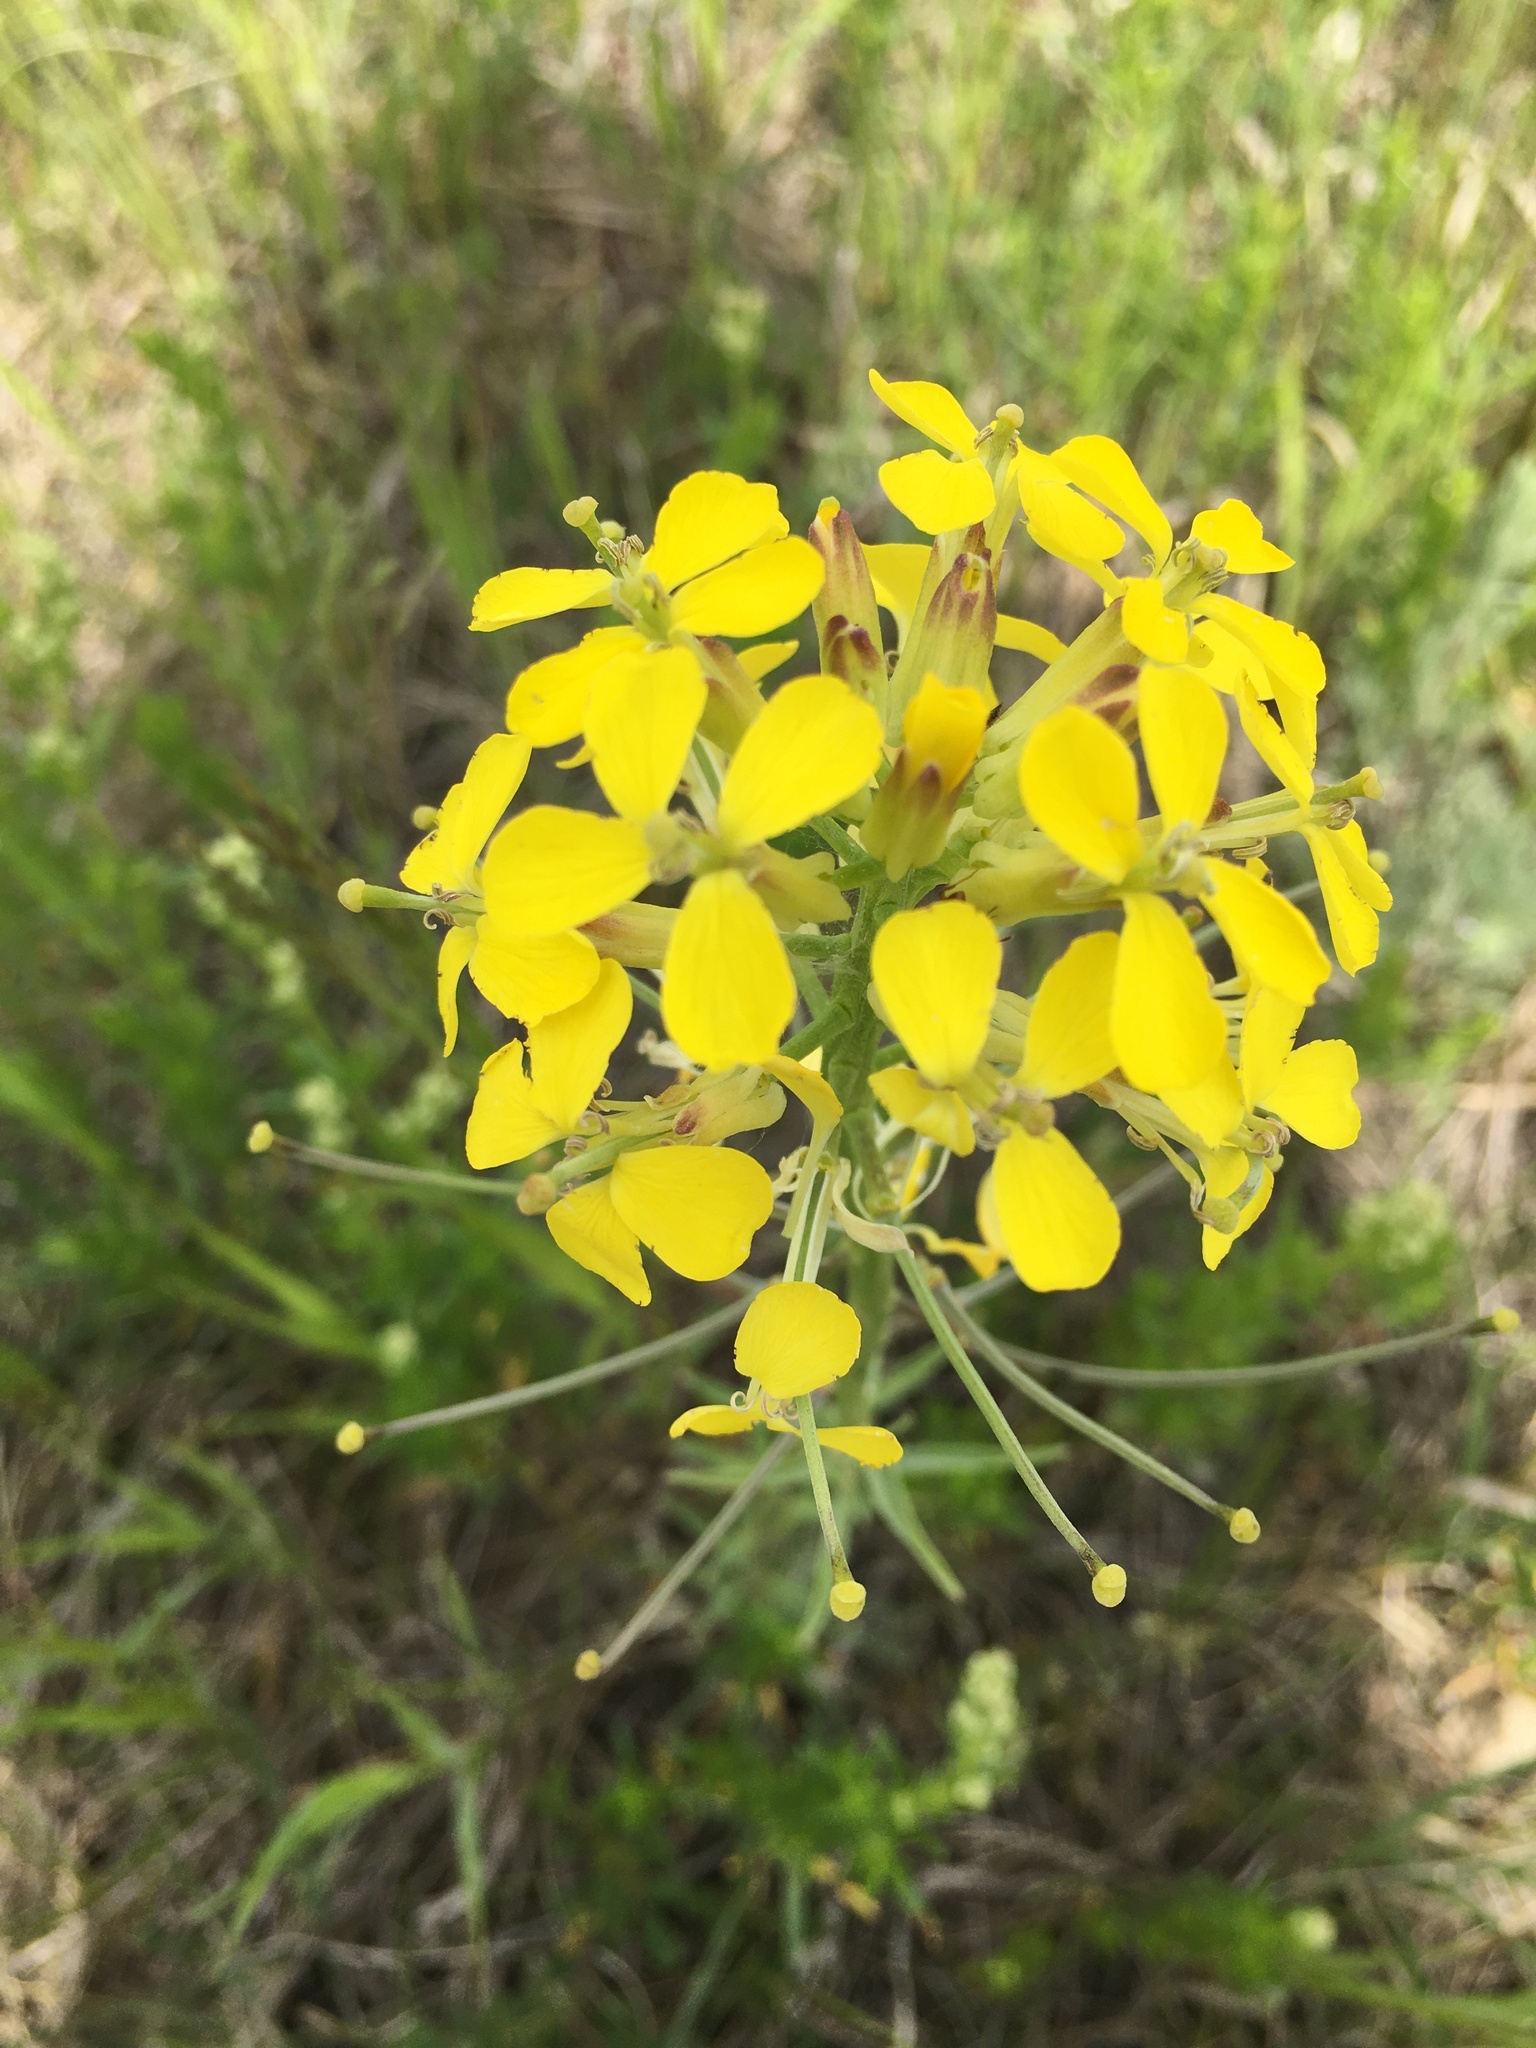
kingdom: Plantae
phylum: Tracheophyta
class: Magnoliopsida
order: Brassicales
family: Brassicaceae
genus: Erysimum
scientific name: Erysimum asperum
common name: Western wallflower
